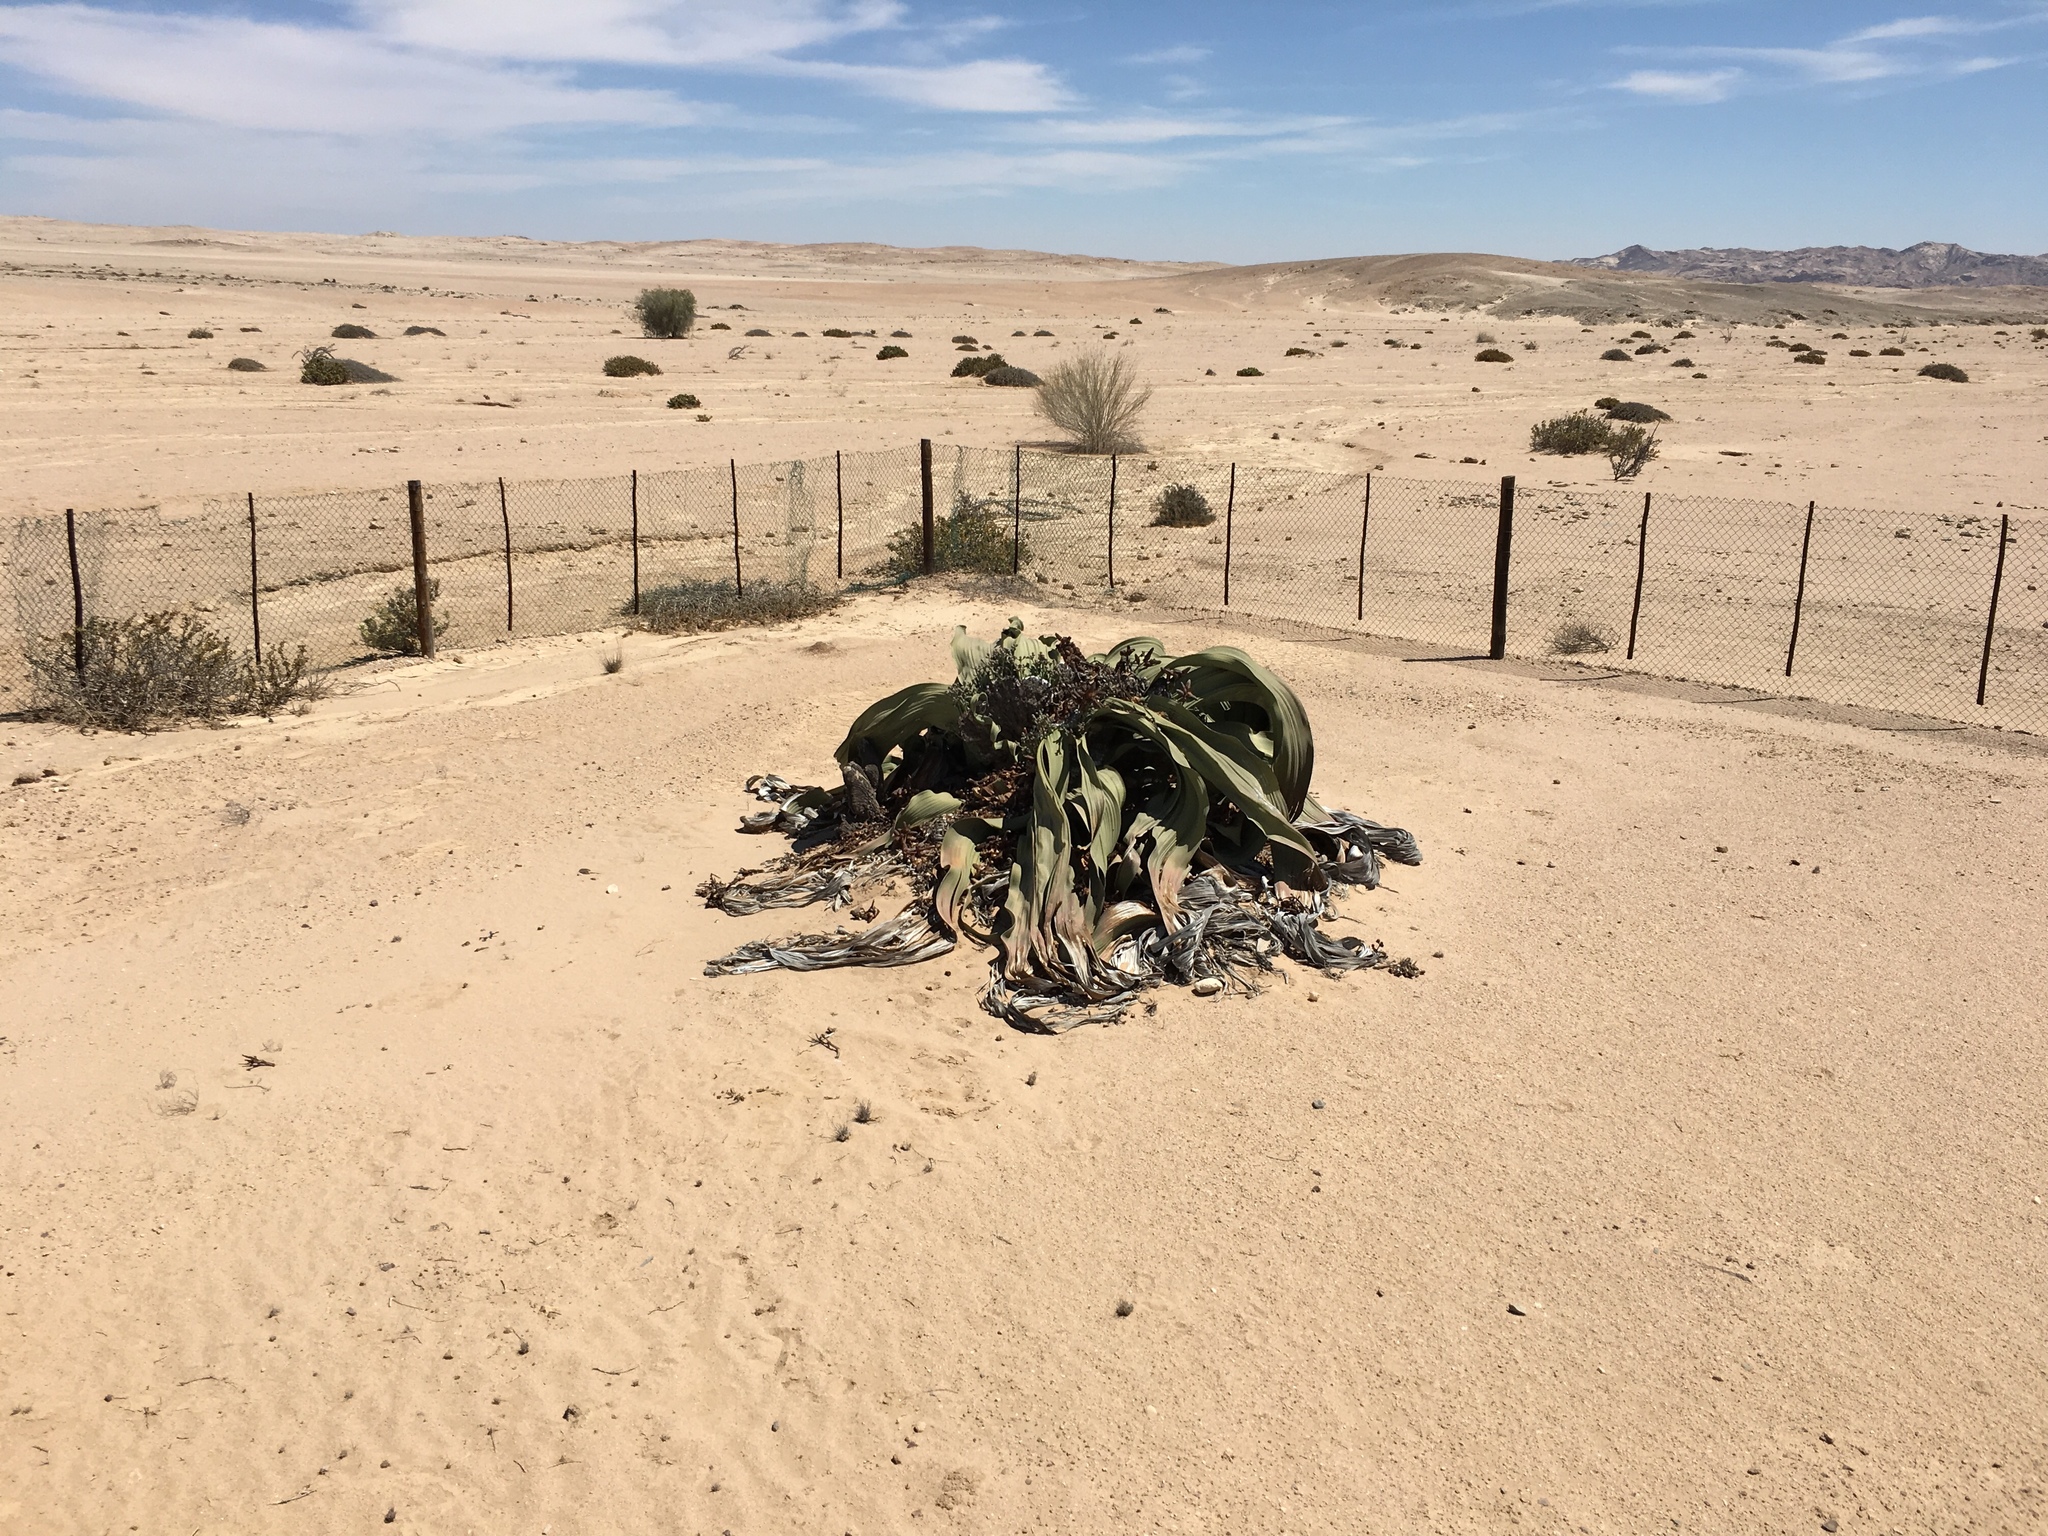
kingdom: Plantae
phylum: Tracheophyta
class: Gnetopsida
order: Welwitschiales
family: Welwitschiaceae
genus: Welwitschia
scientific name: Welwitschia mirabilis
